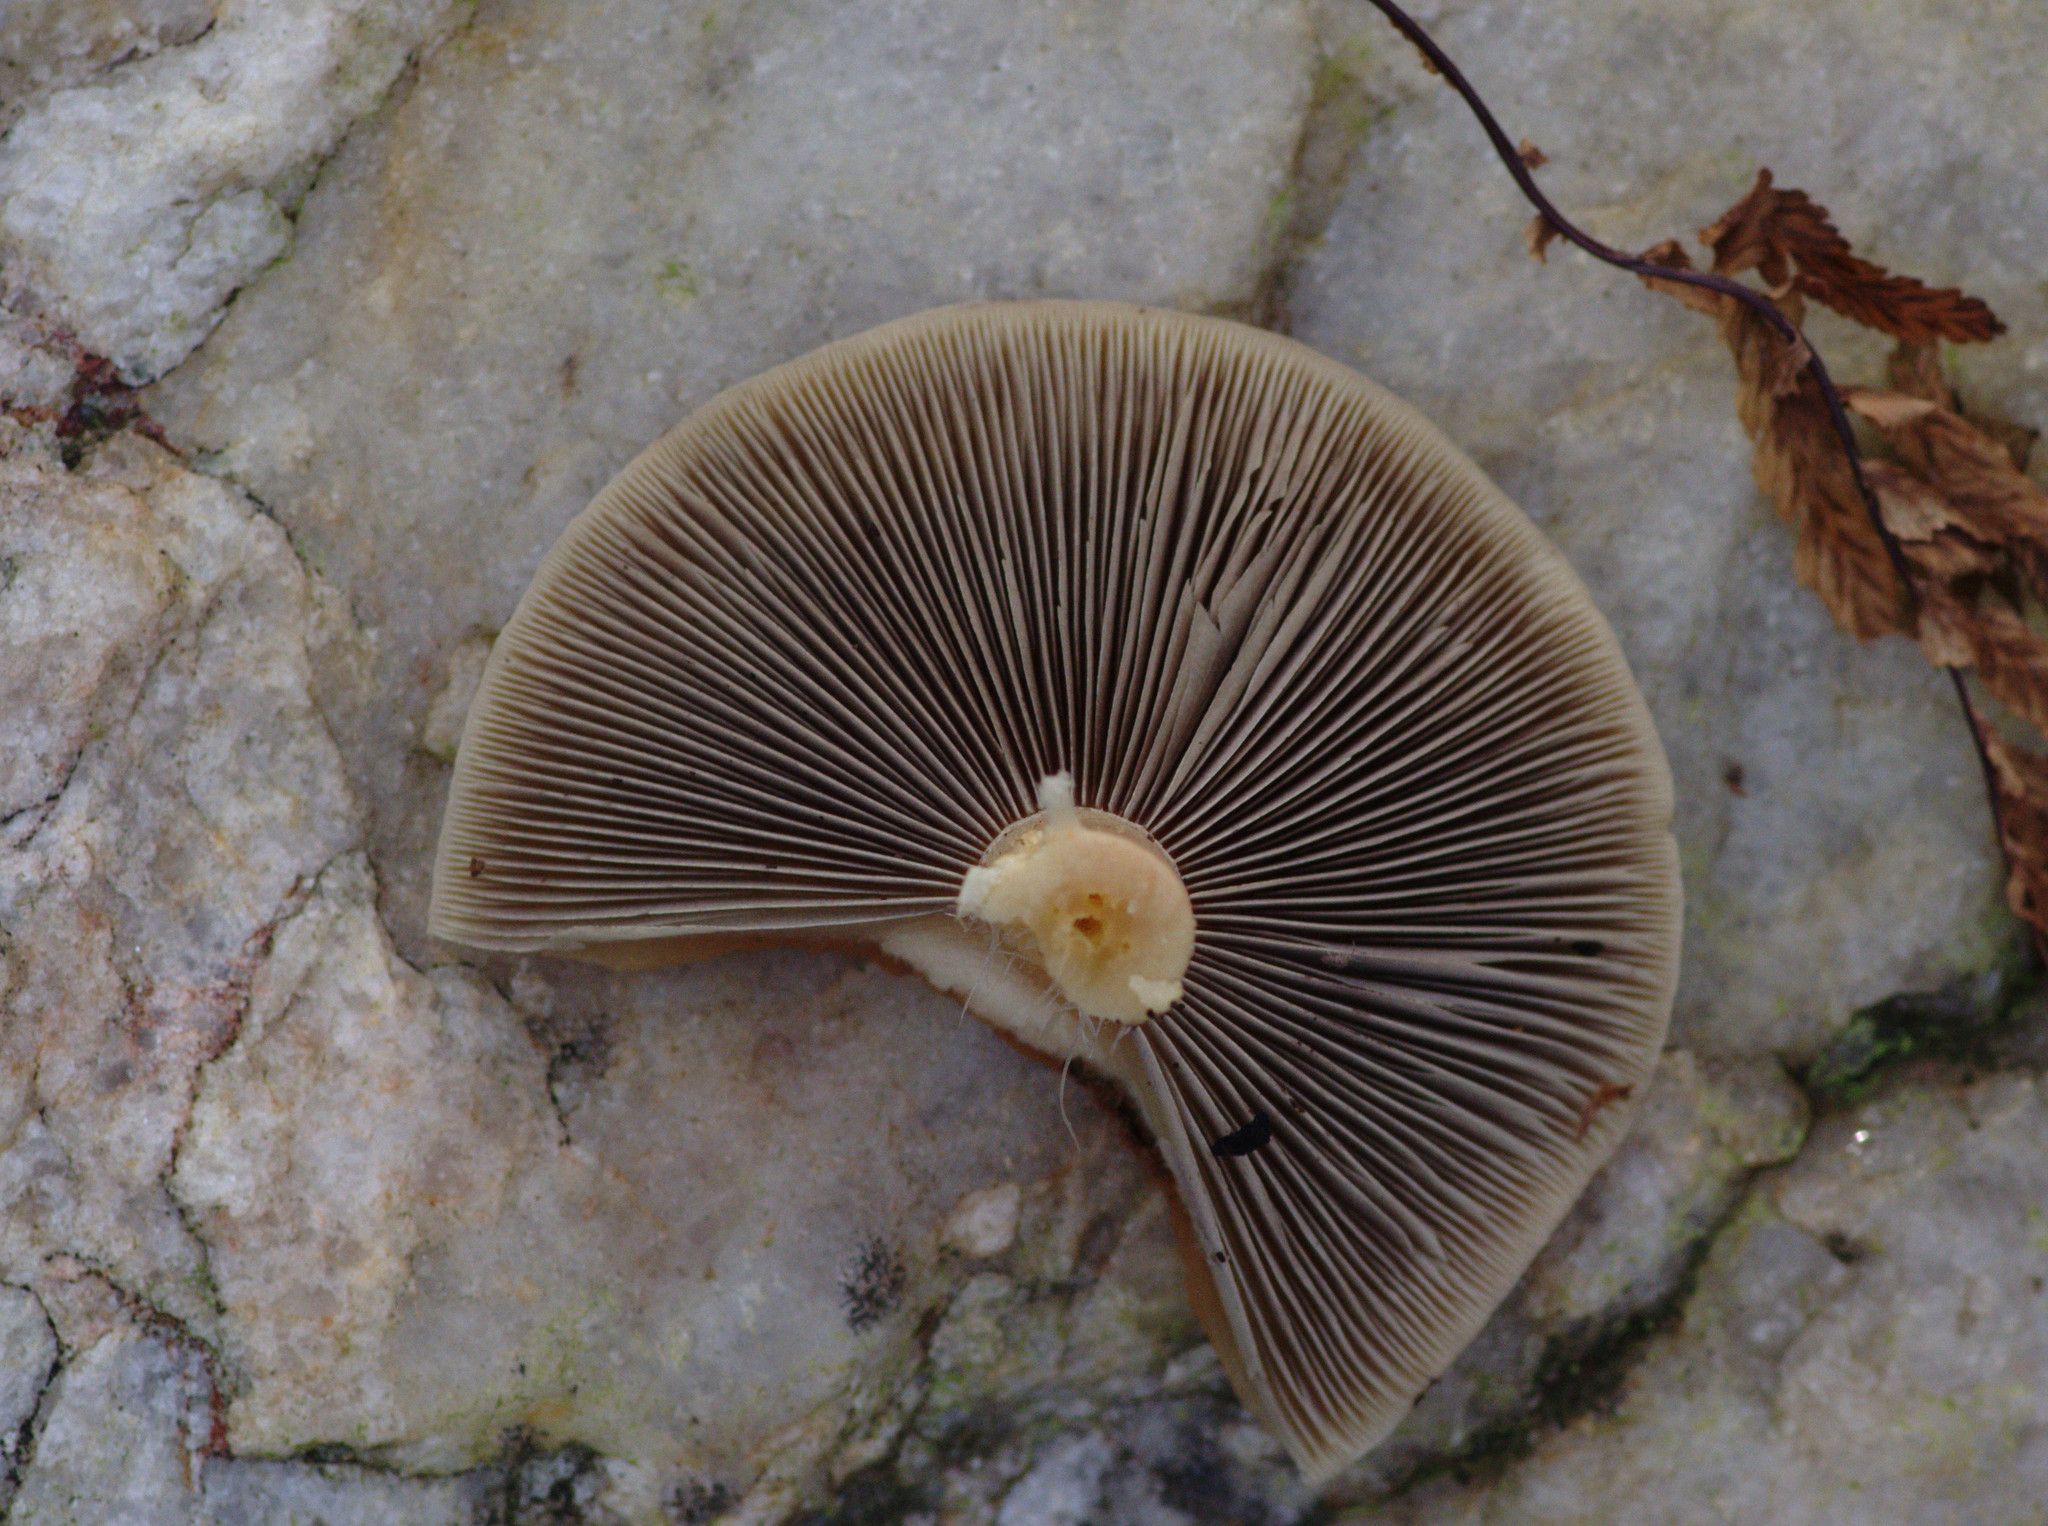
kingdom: Fungi
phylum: Basidiomycota
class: Agaricomycetes
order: Agaricales
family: Strophariaceae
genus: Hypholoma
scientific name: Hypholoma lateritium
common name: Brick caps
